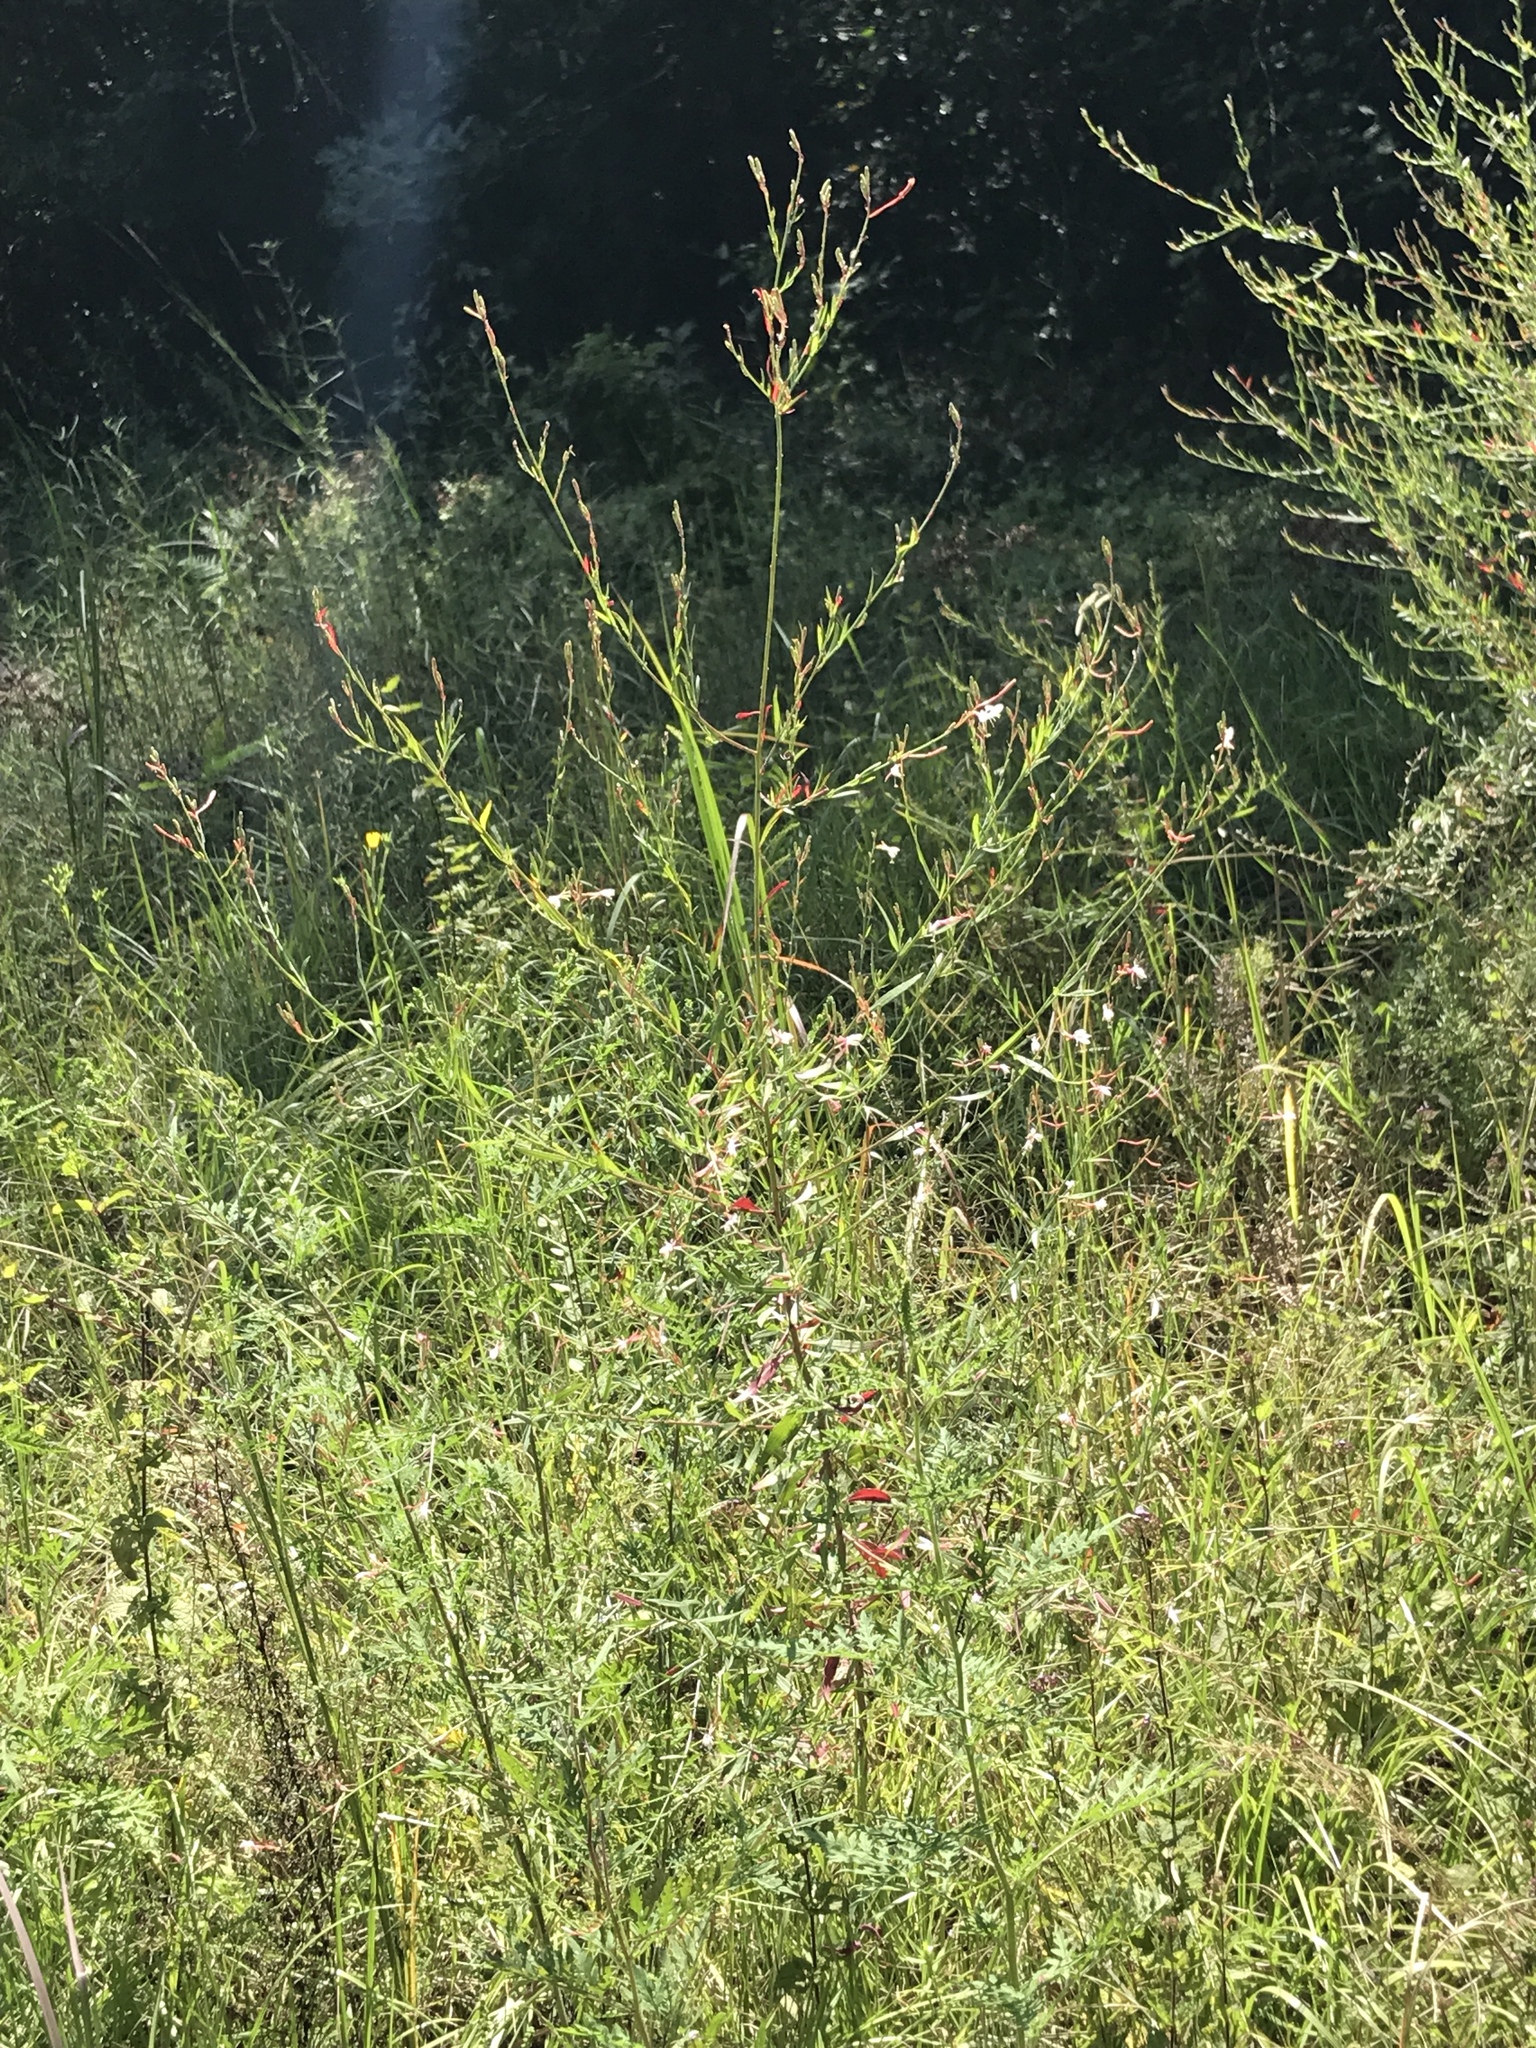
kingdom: Plantae
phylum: Tracheophyta
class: Magnoliopsida
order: Myrtales
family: Onagraceae
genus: Oenothera
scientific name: Oenothera lindheimeri
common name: Lindheimer's beeblossom
